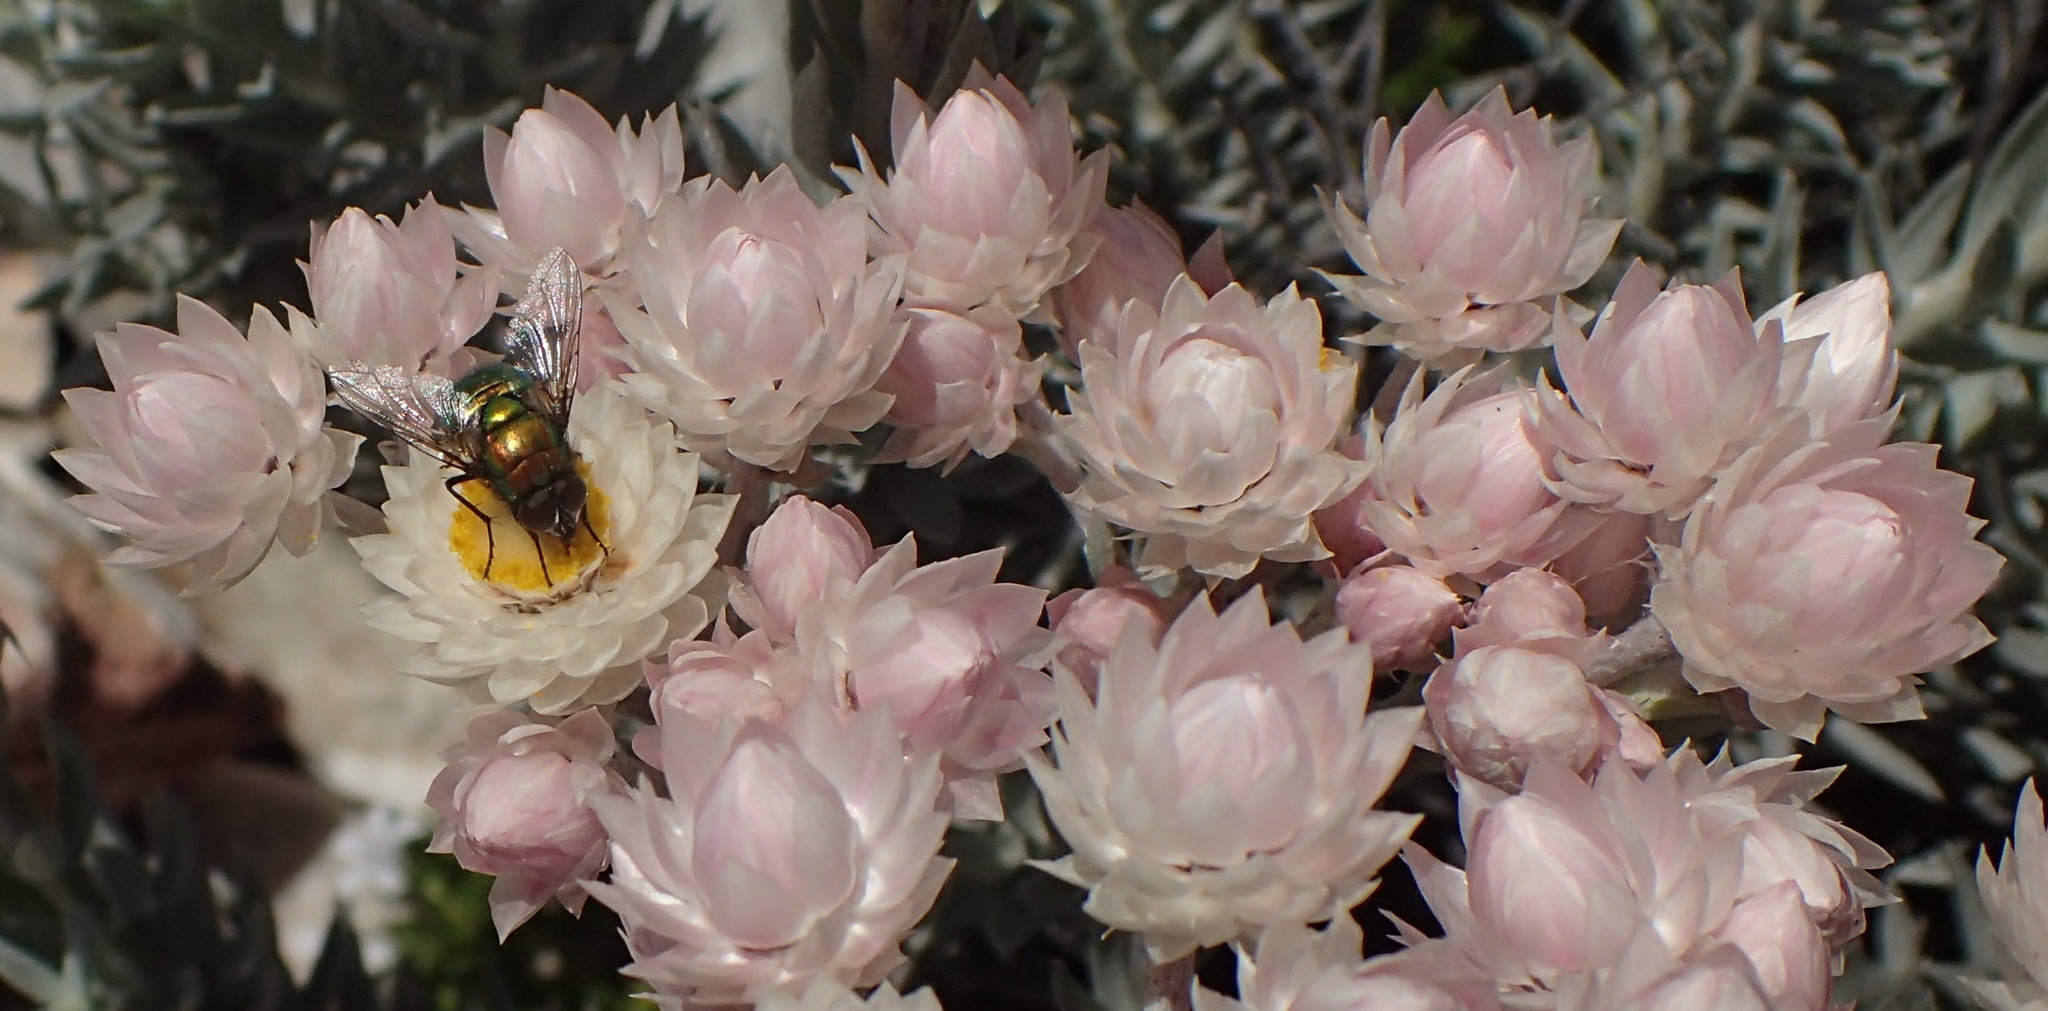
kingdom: Plantae
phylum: Tracheophyta
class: Magnoliopsida
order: Asterales
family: Asteraceae
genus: Achyranthemum
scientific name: Achyranthemum paniculatum
